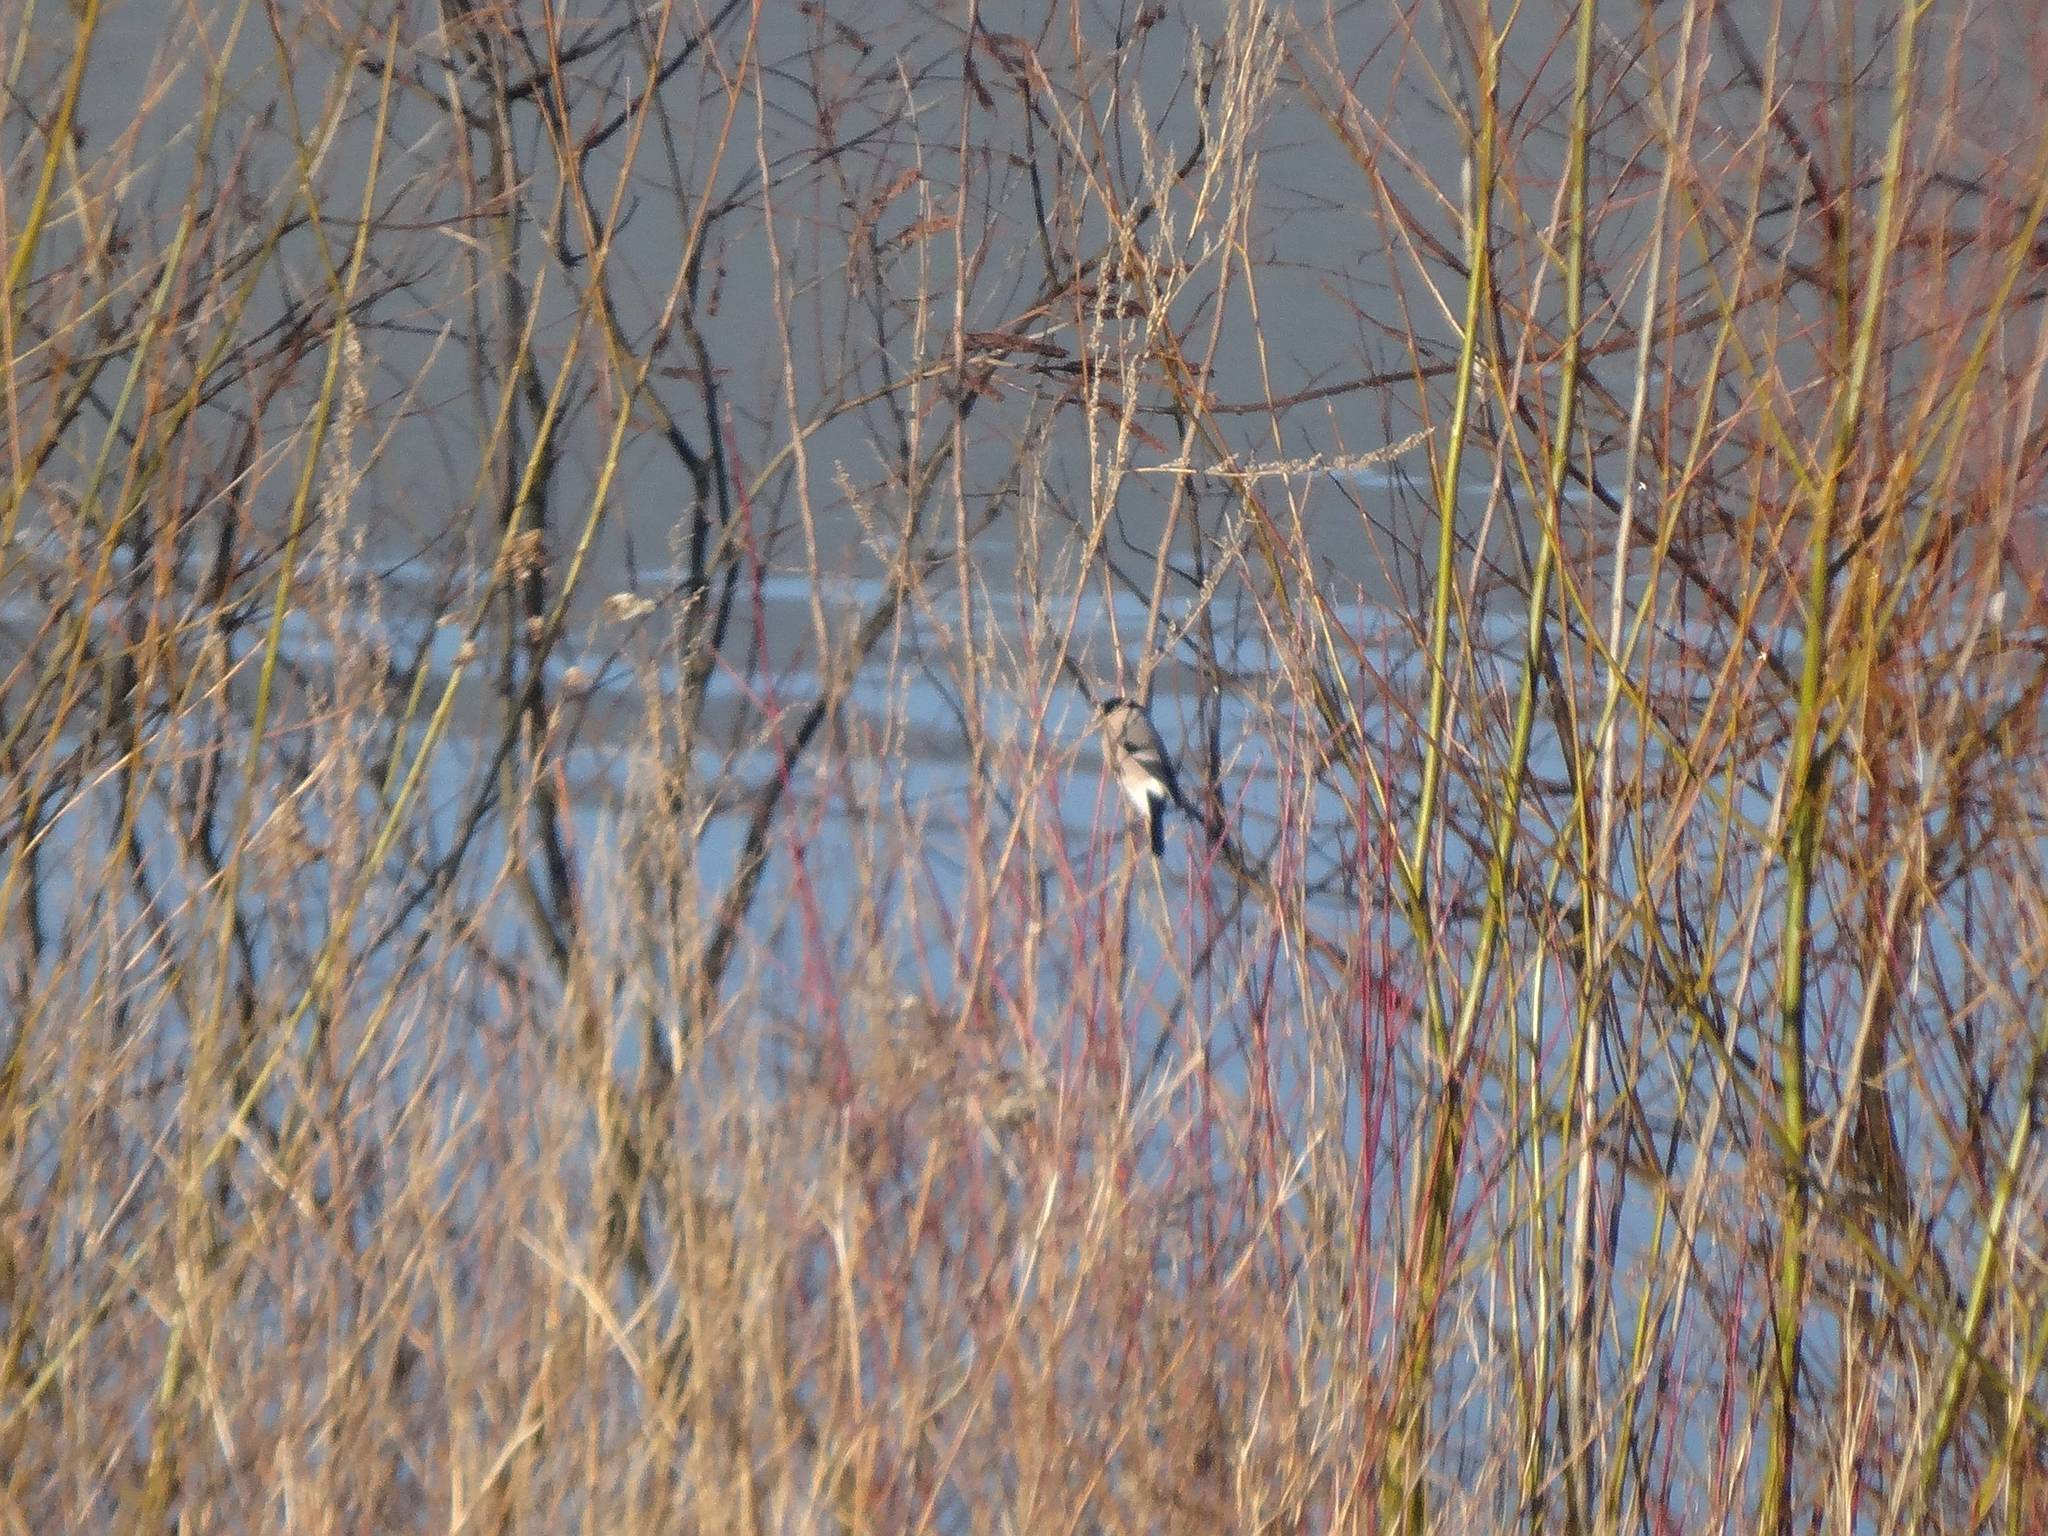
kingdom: Animalia
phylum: Chordata
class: Aves
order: Passeriformes
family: Fringillidae
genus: Pyrrhula
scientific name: Pyrrhula pyrrhula
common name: Eurasian bullfinch
